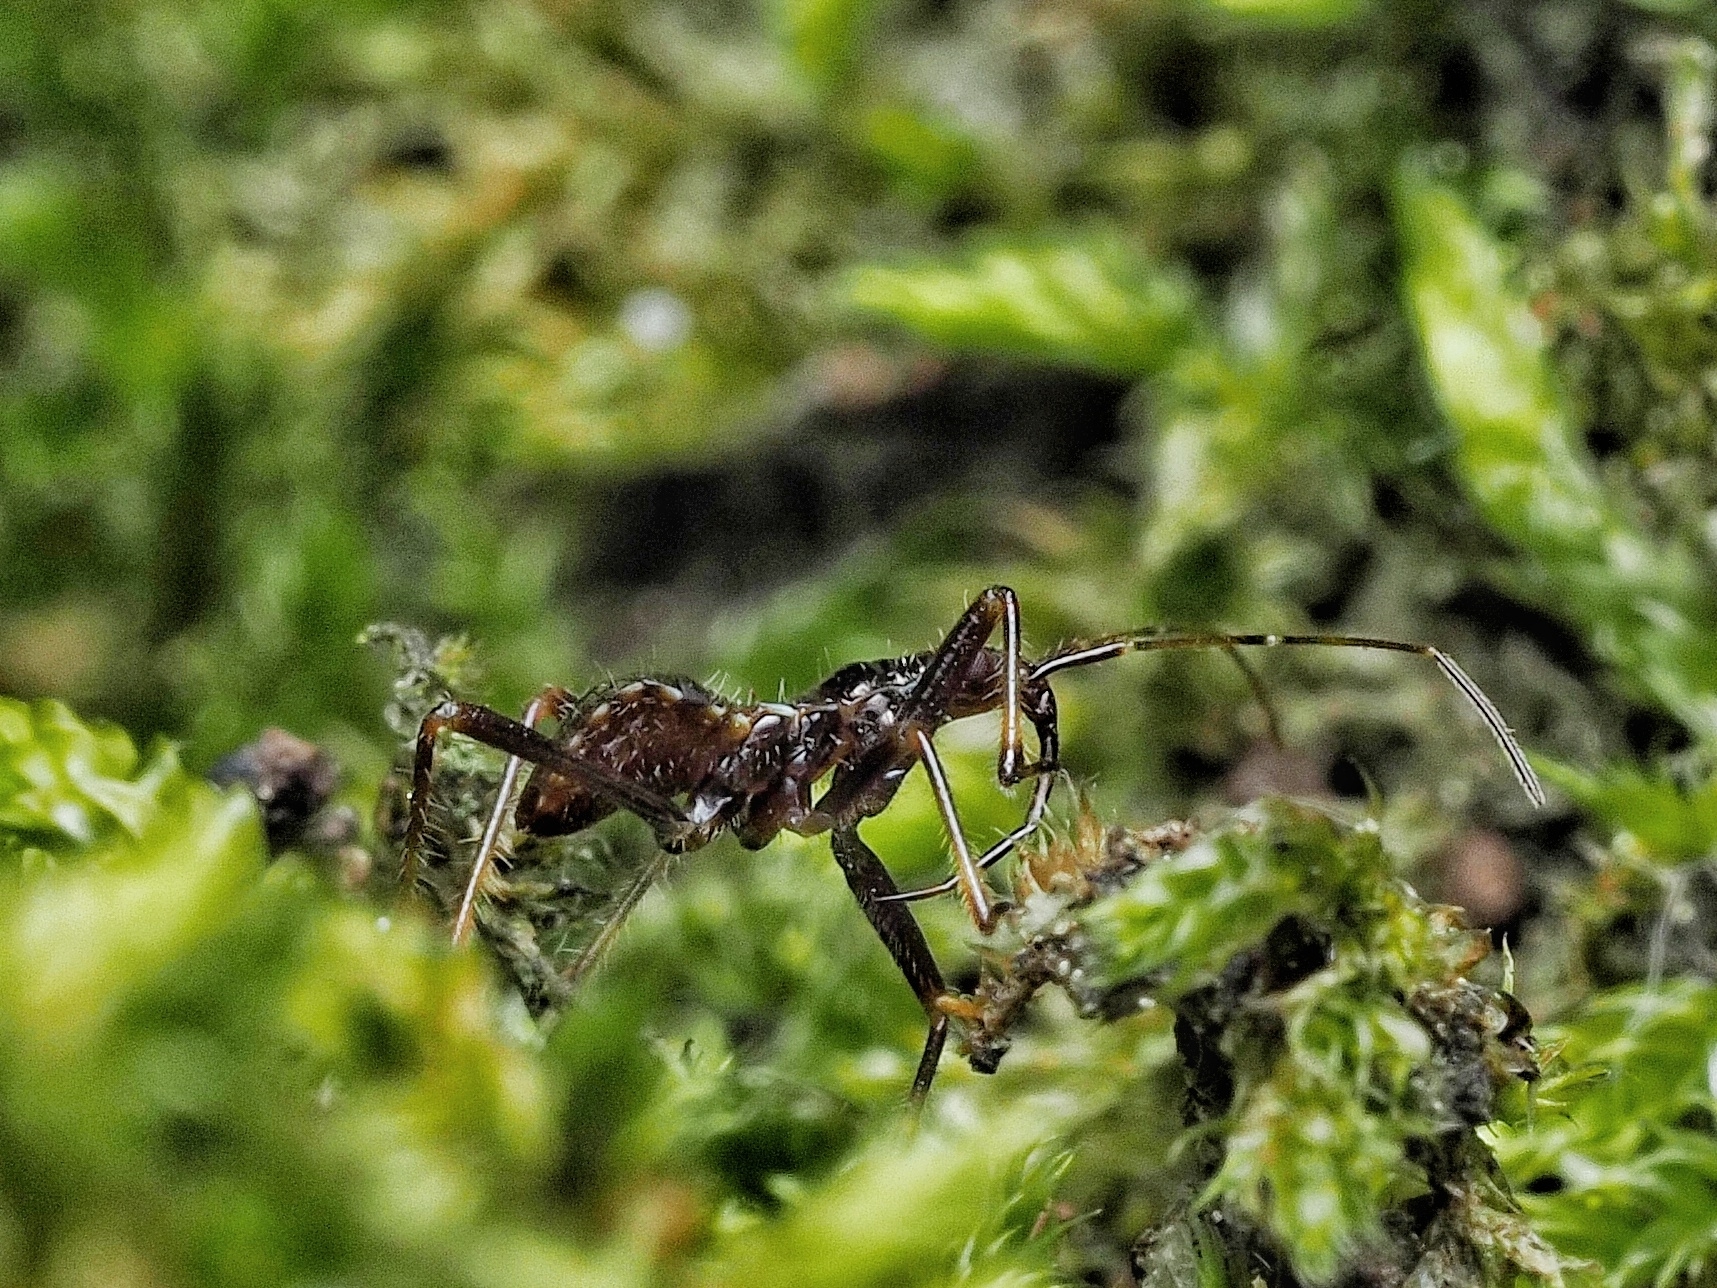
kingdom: Animalia
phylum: Arthropoda
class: Insecta
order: Hemiptera
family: Nabidae
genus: Himacerus
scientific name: Himacerus apterus
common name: Tree damsel bug
